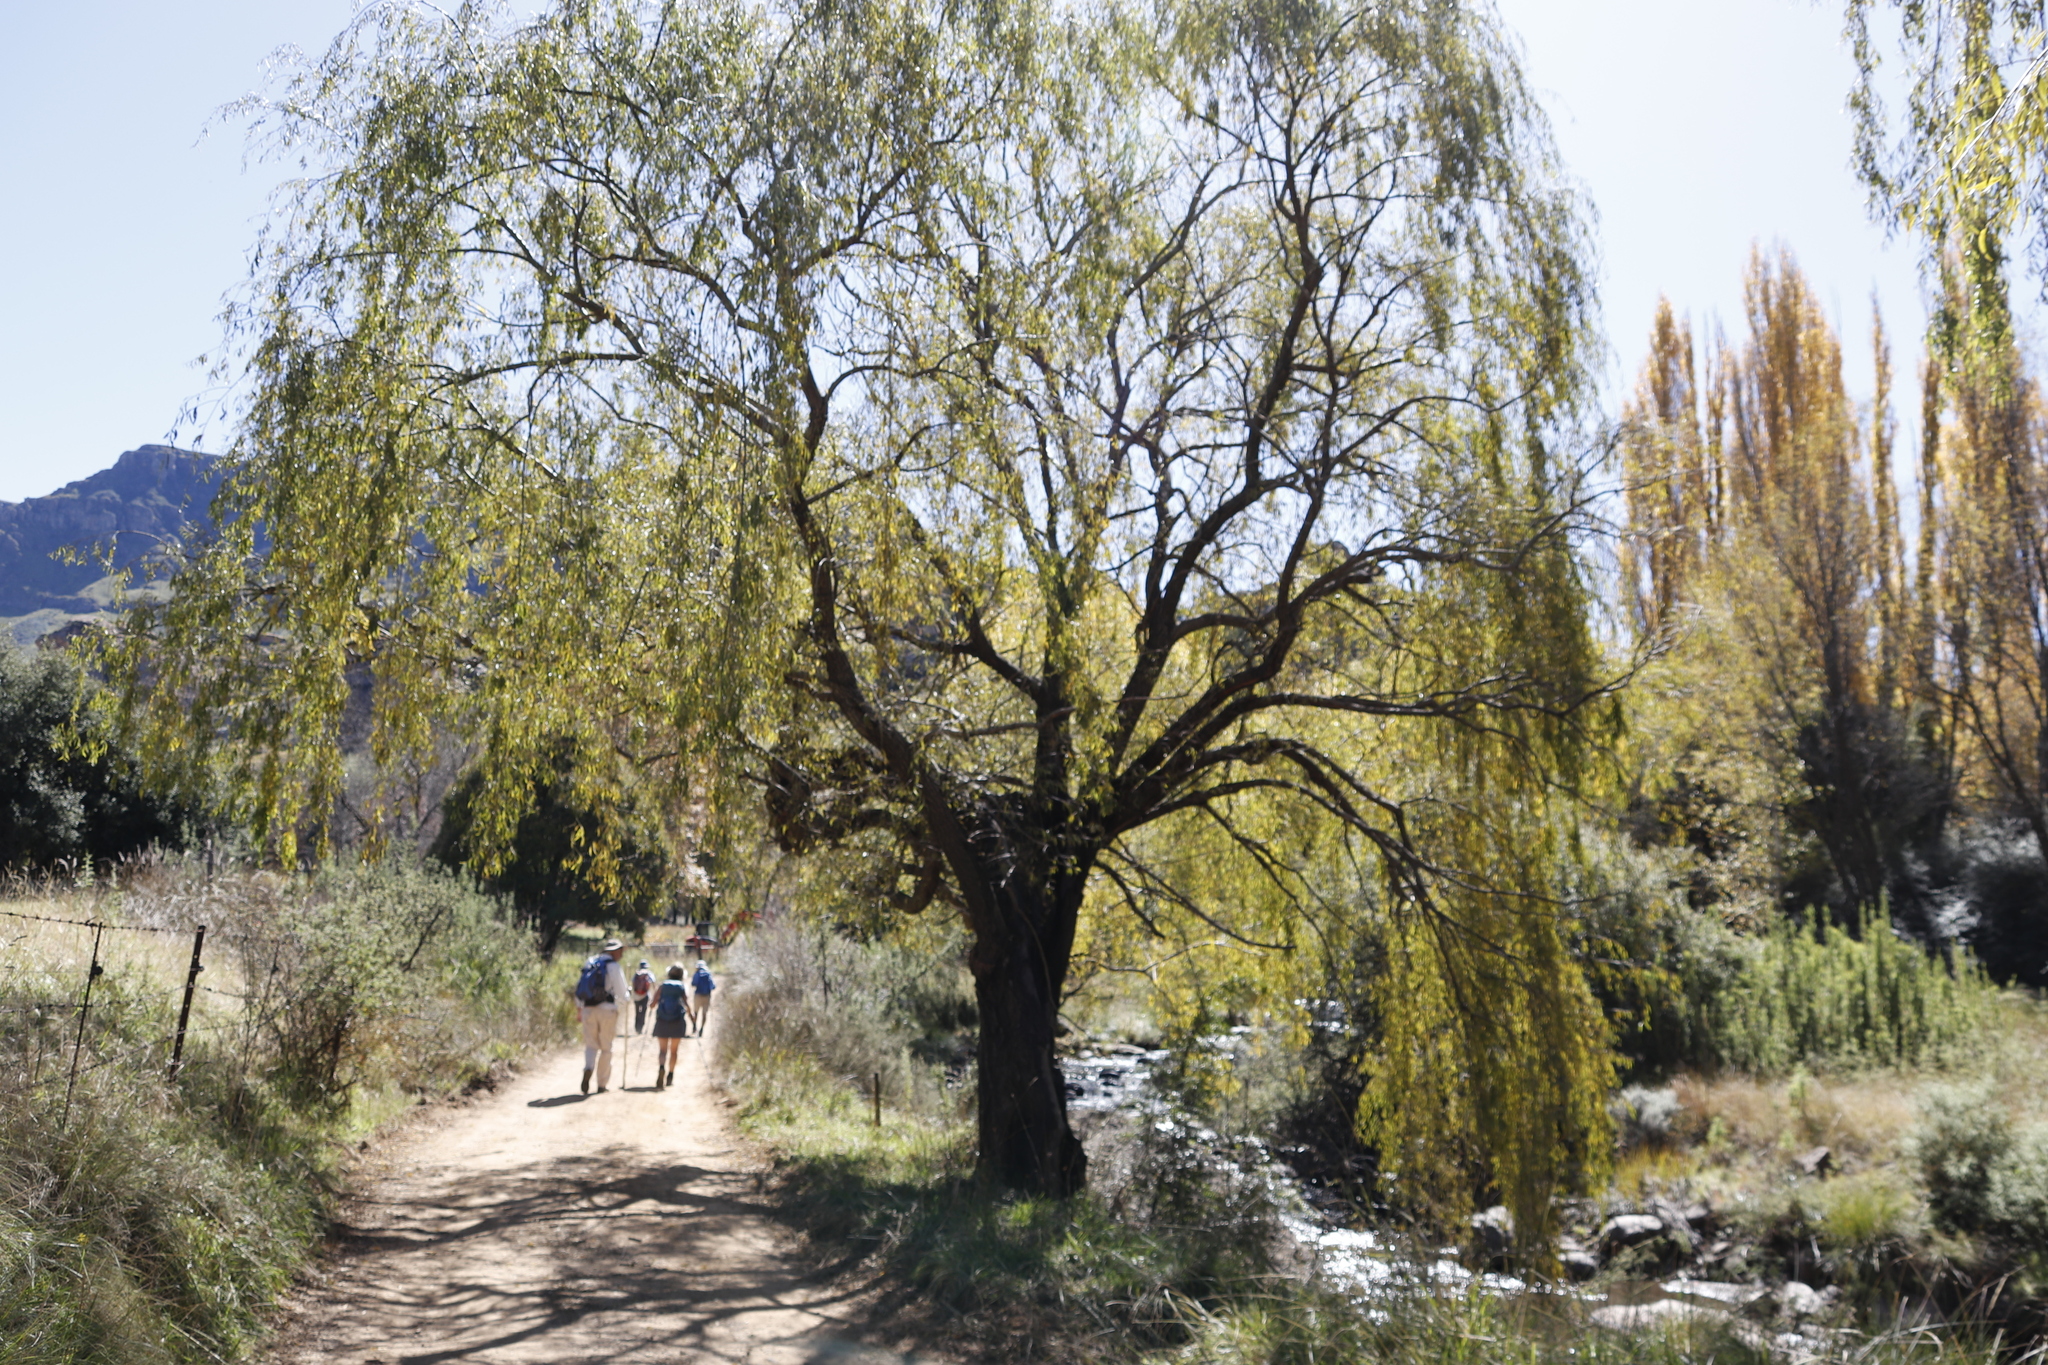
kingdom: Plantae
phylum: Tracheophyta
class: Magnoliopsida
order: Malpighiales
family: Salicaceae
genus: Salix
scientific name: Salix babylonica
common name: Weeping willow
